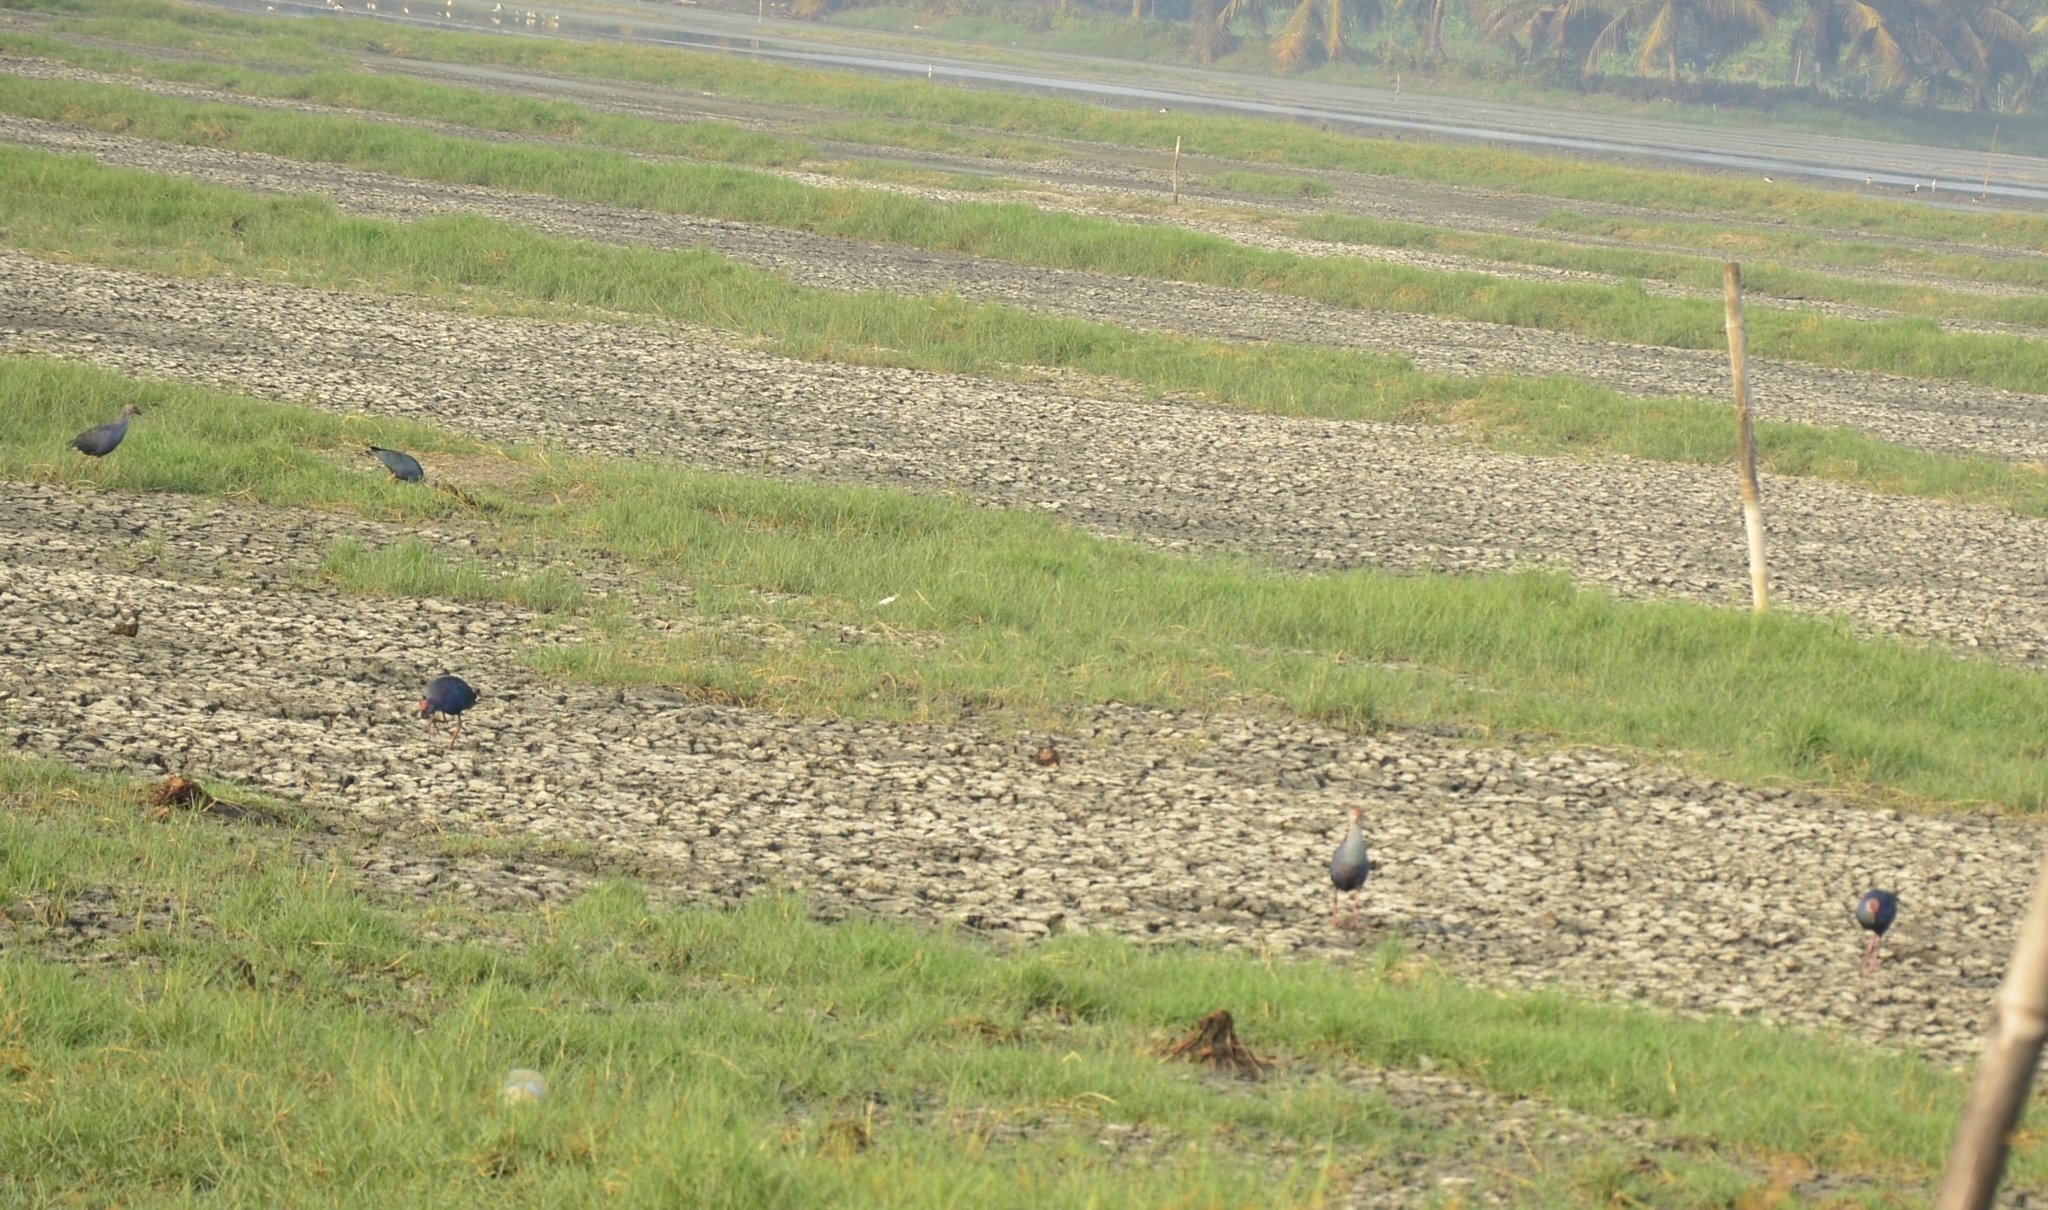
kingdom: Animalia
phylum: Chordata
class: Aves
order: Gruiformes
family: Rallidae
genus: Porphyrio
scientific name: Porphyrio porphyrio
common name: Purple swamphen
